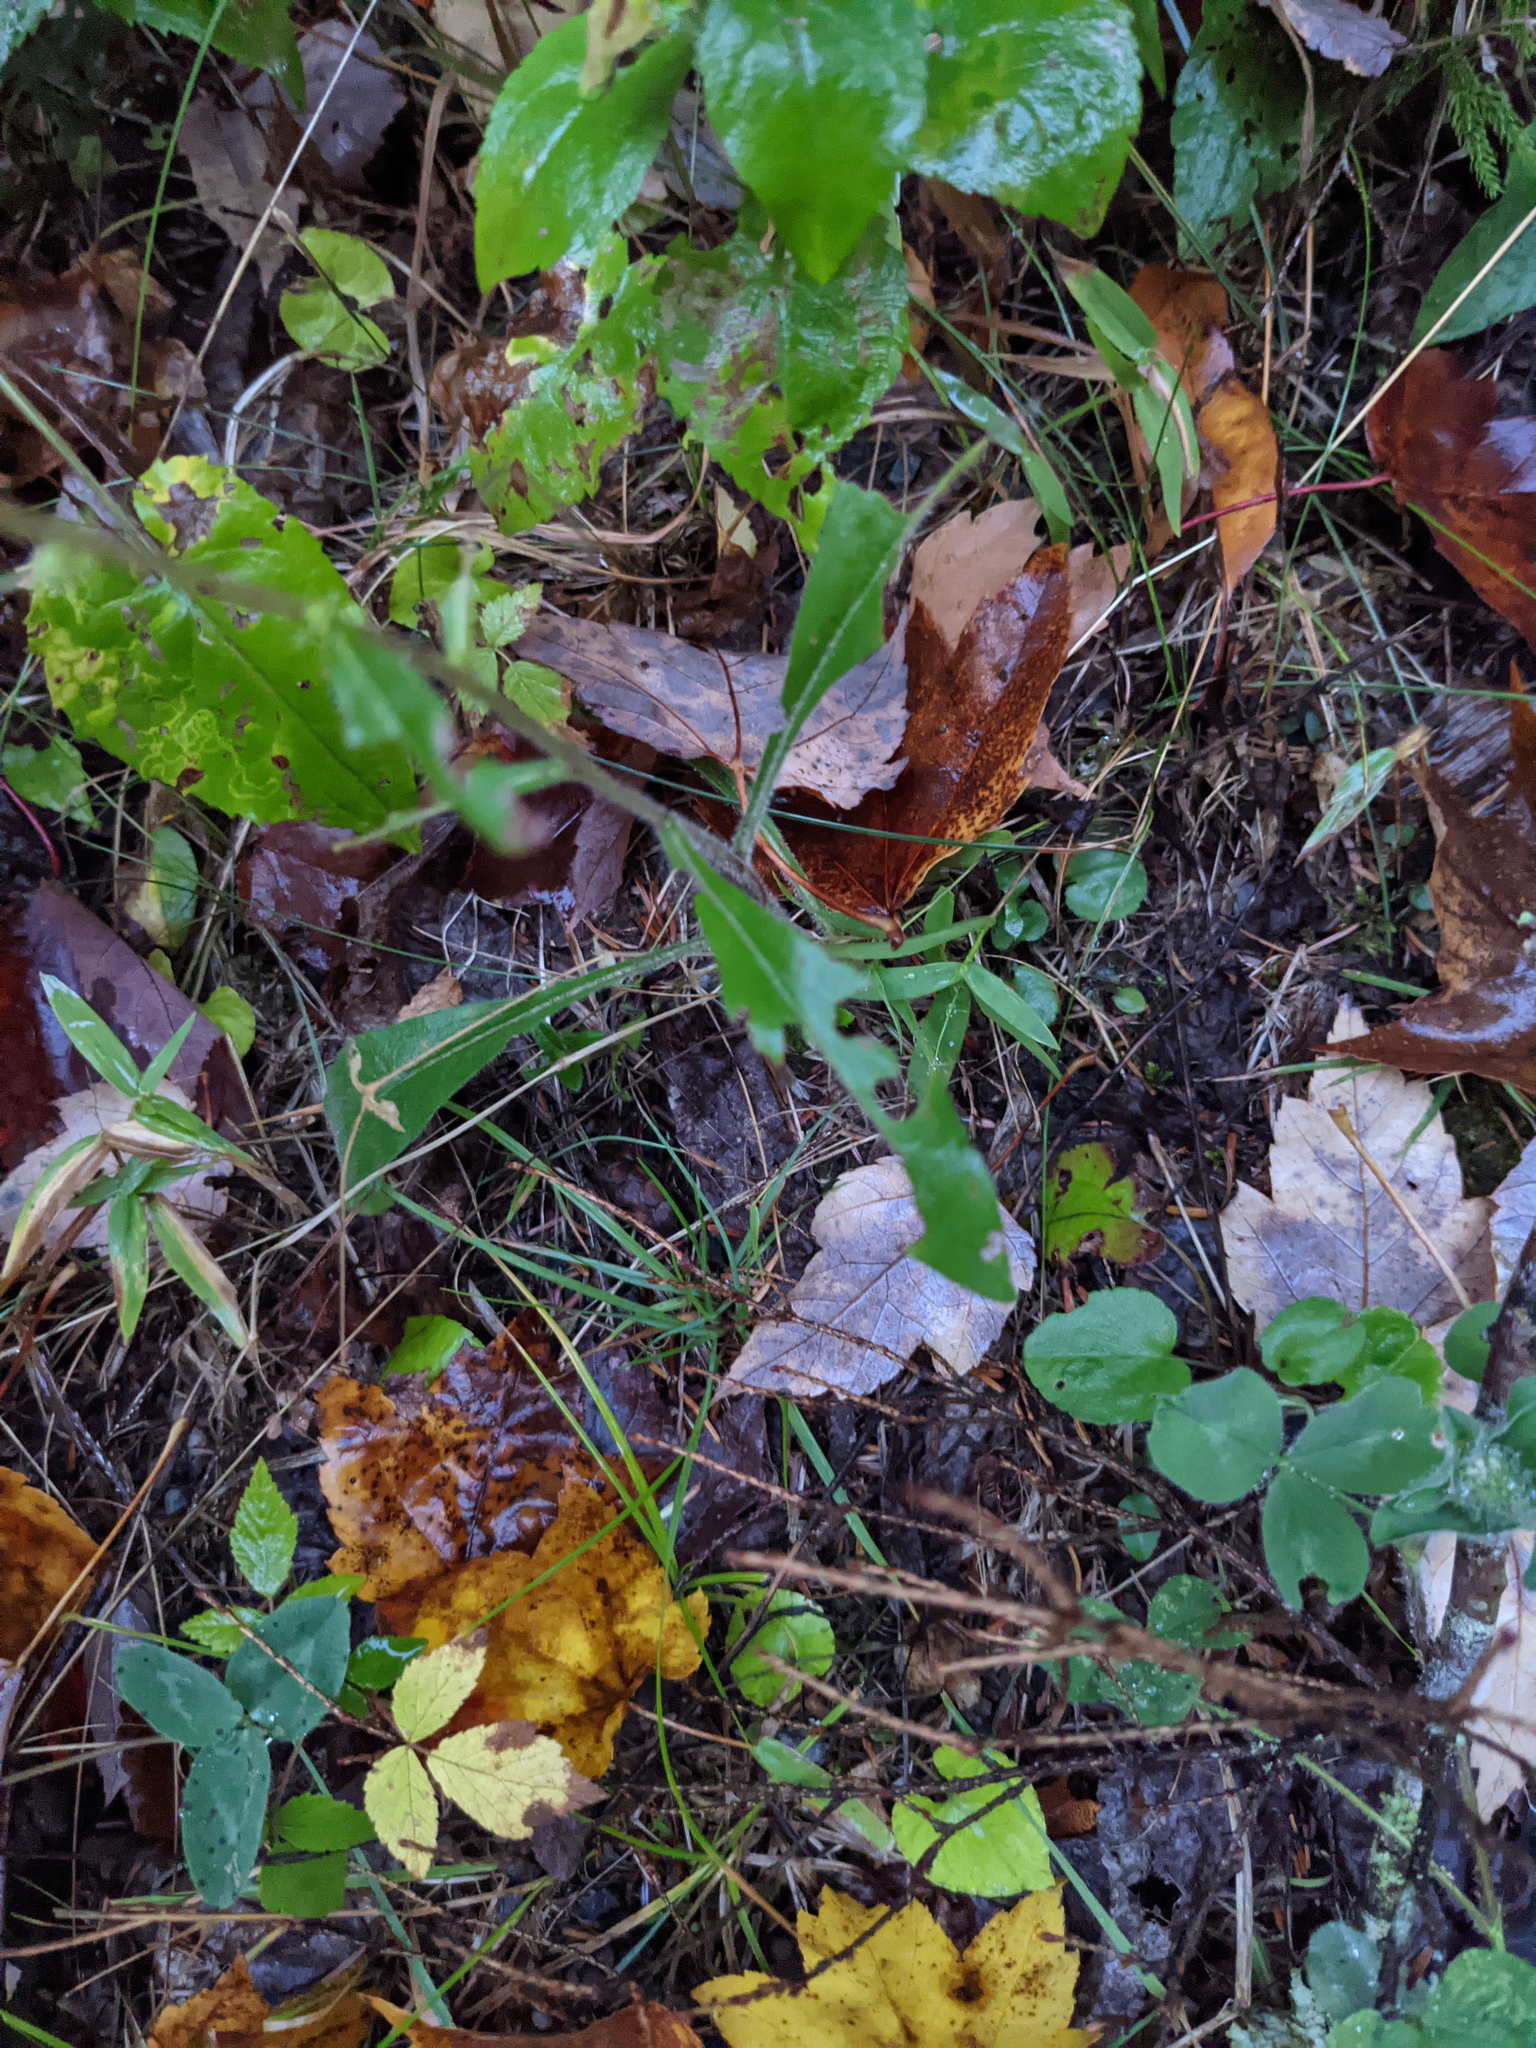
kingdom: Plantae
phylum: Tracheophyta
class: Magnoliopsida
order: Asterales
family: Asteraceae
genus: Solidago
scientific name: Solidago bicolor
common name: Silverrod
